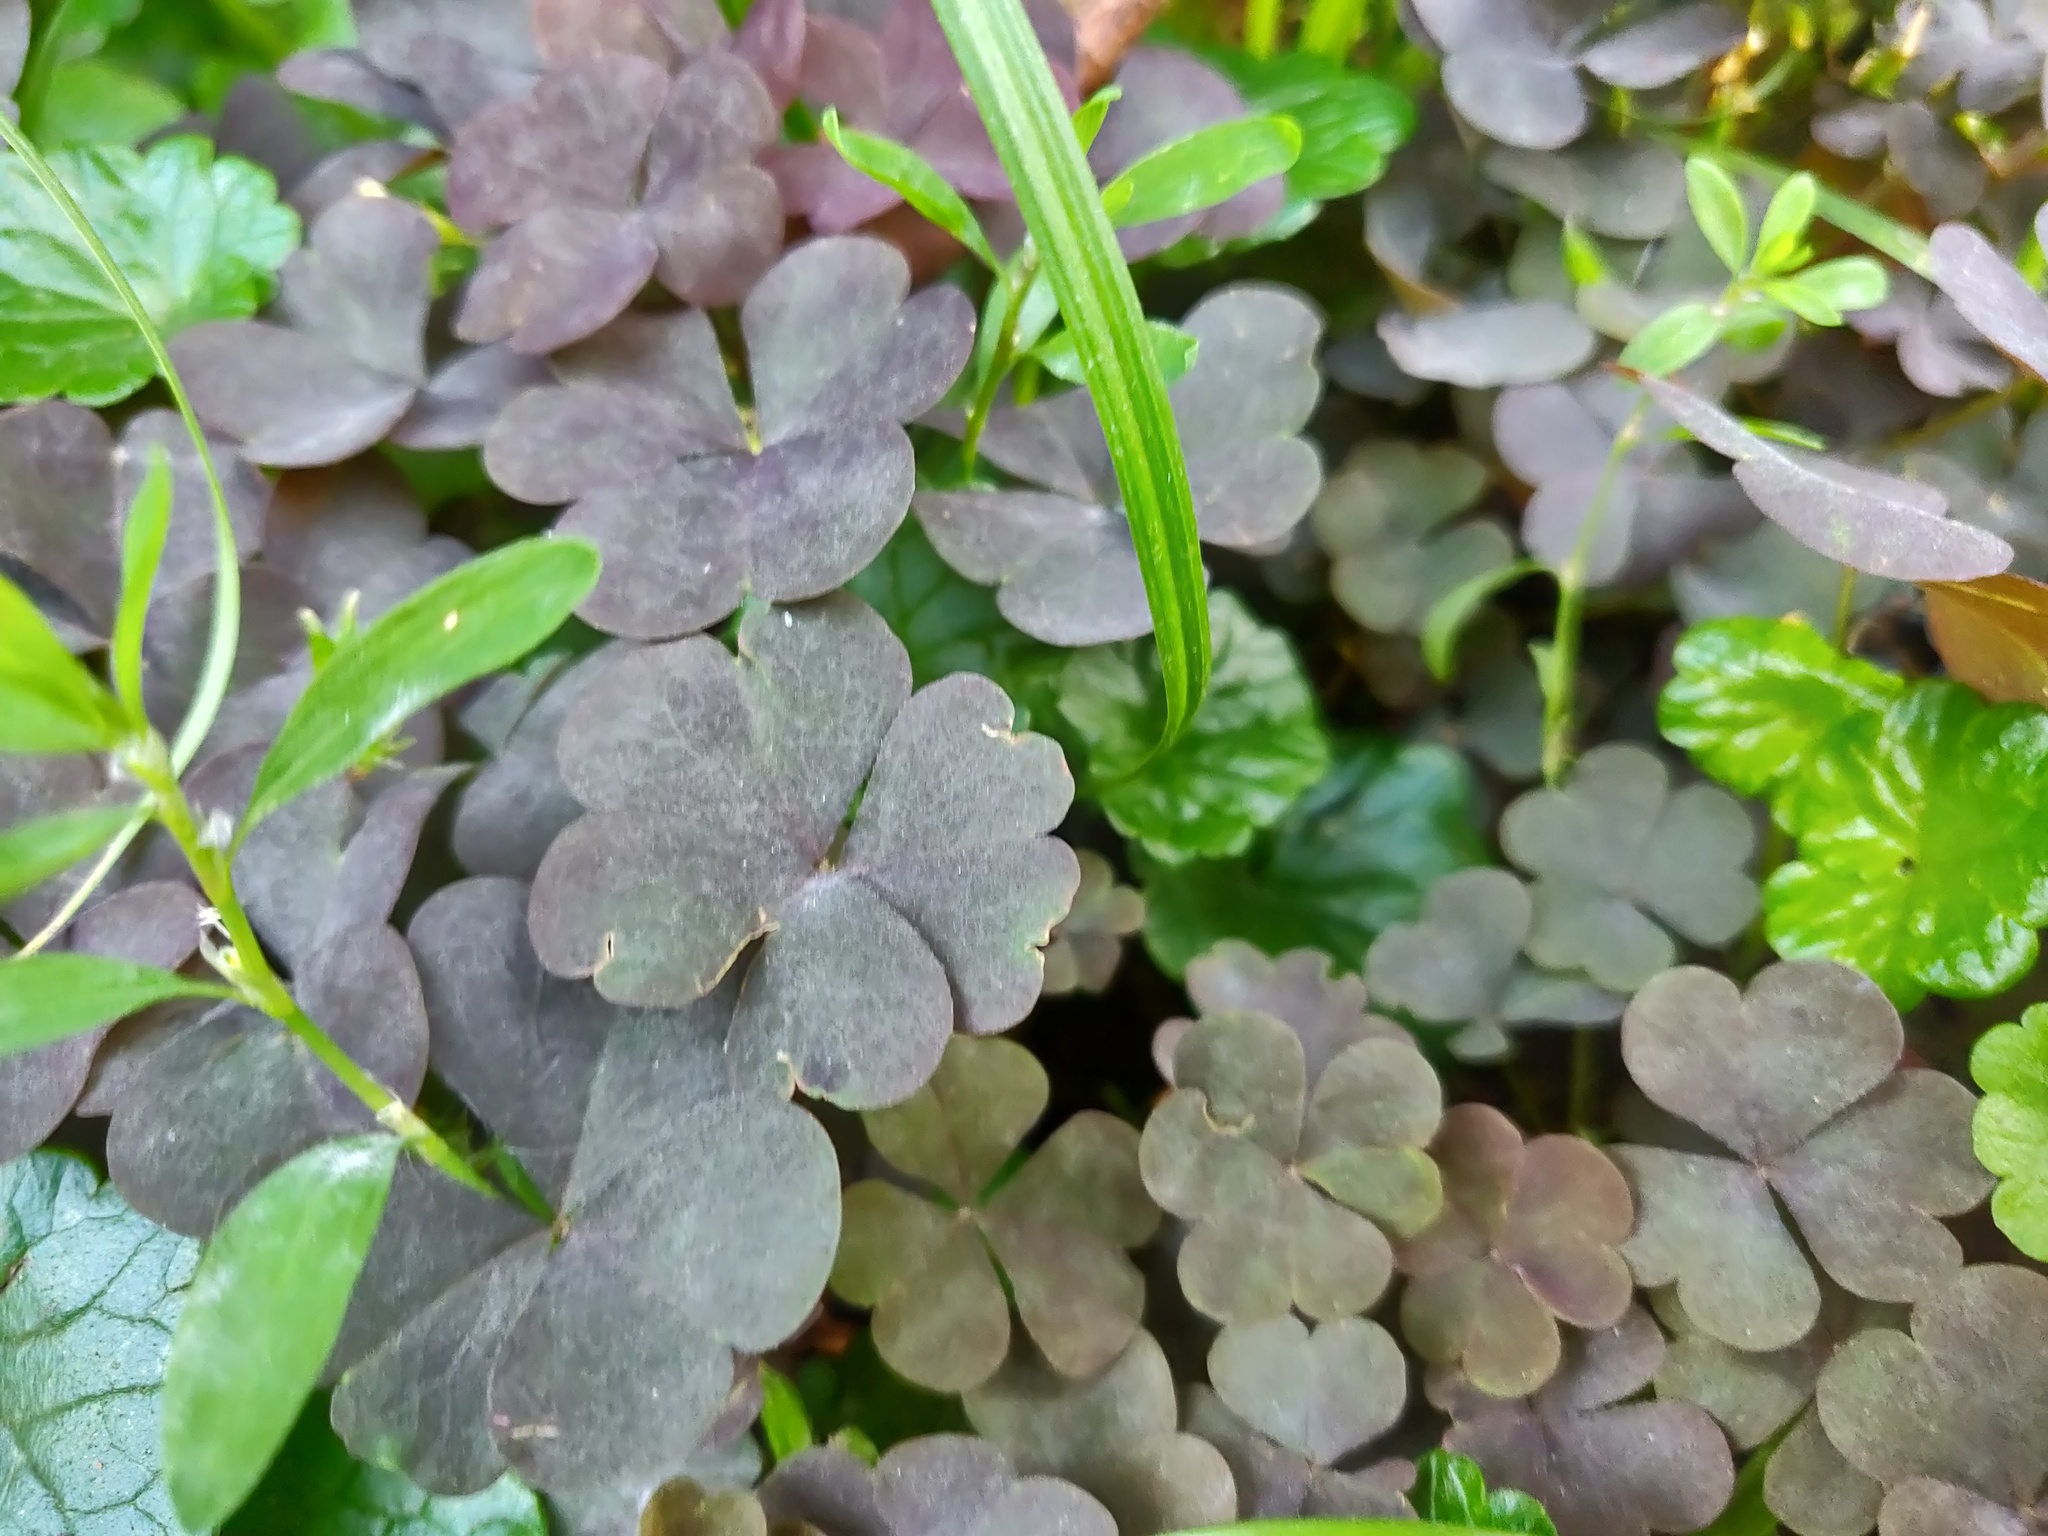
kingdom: Plantae
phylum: Tracheophyta
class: Magnoliopsida
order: Oxalidales
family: Oxalidaceae
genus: Oxalis
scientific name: Oxalis stricta
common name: Upright yellow-sorrel
